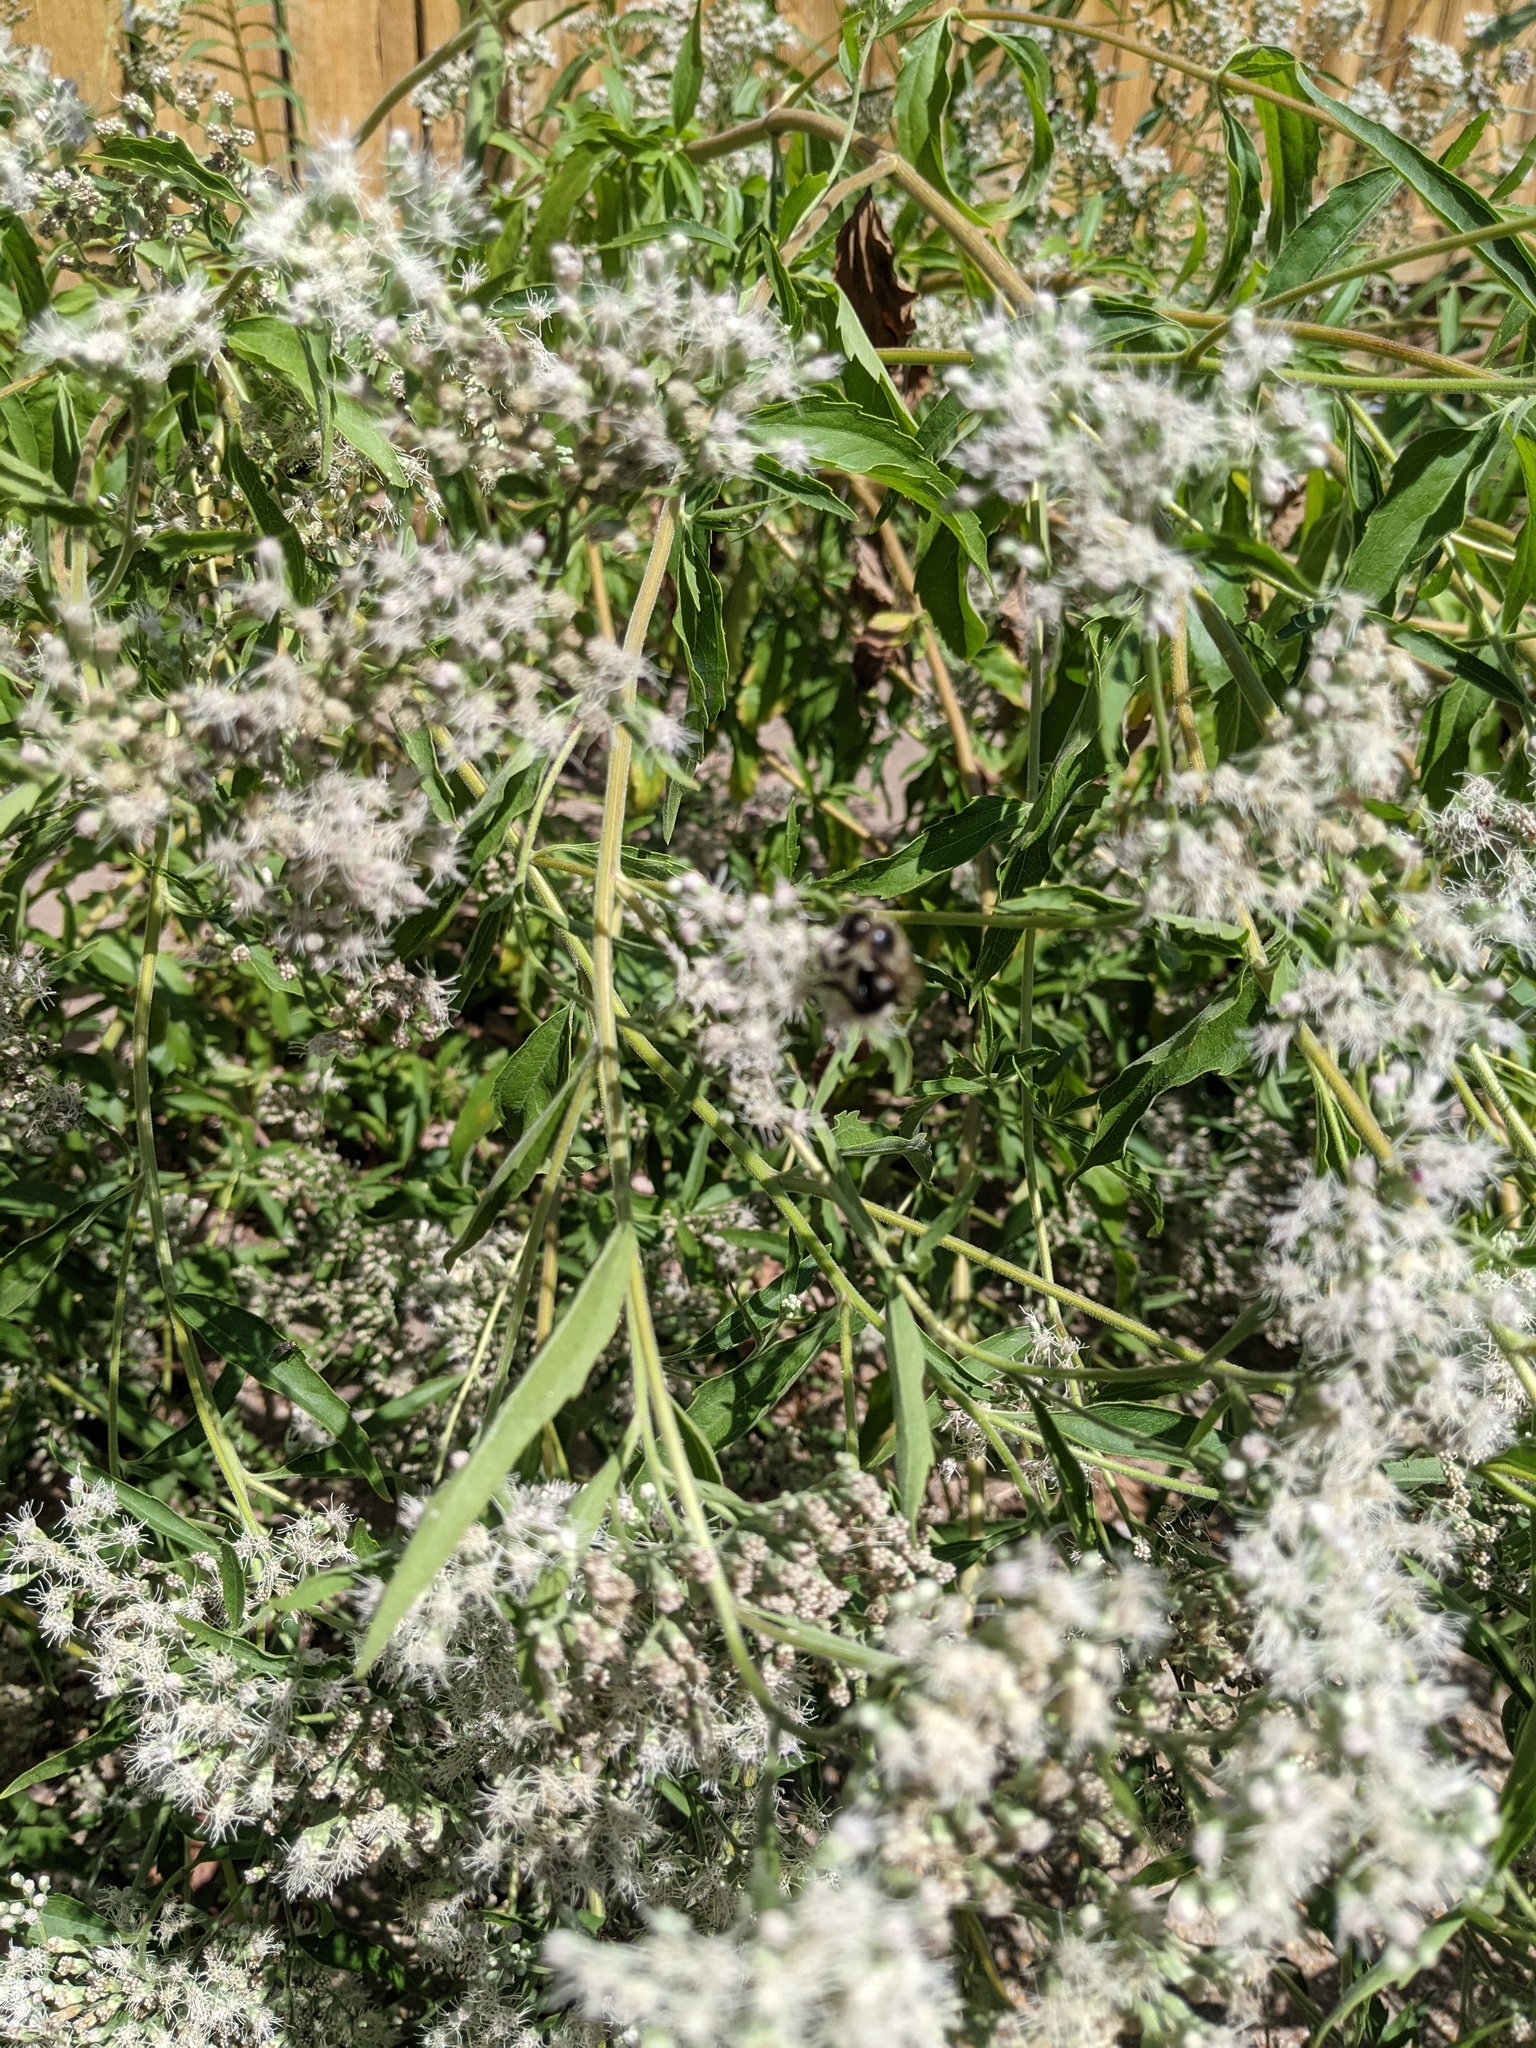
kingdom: Animalia
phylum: Arthropoda
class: Insecta
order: Hymenoptera
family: Apidae
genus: Bombus
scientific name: Bombus impatiens
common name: Common eastern bumble bee
